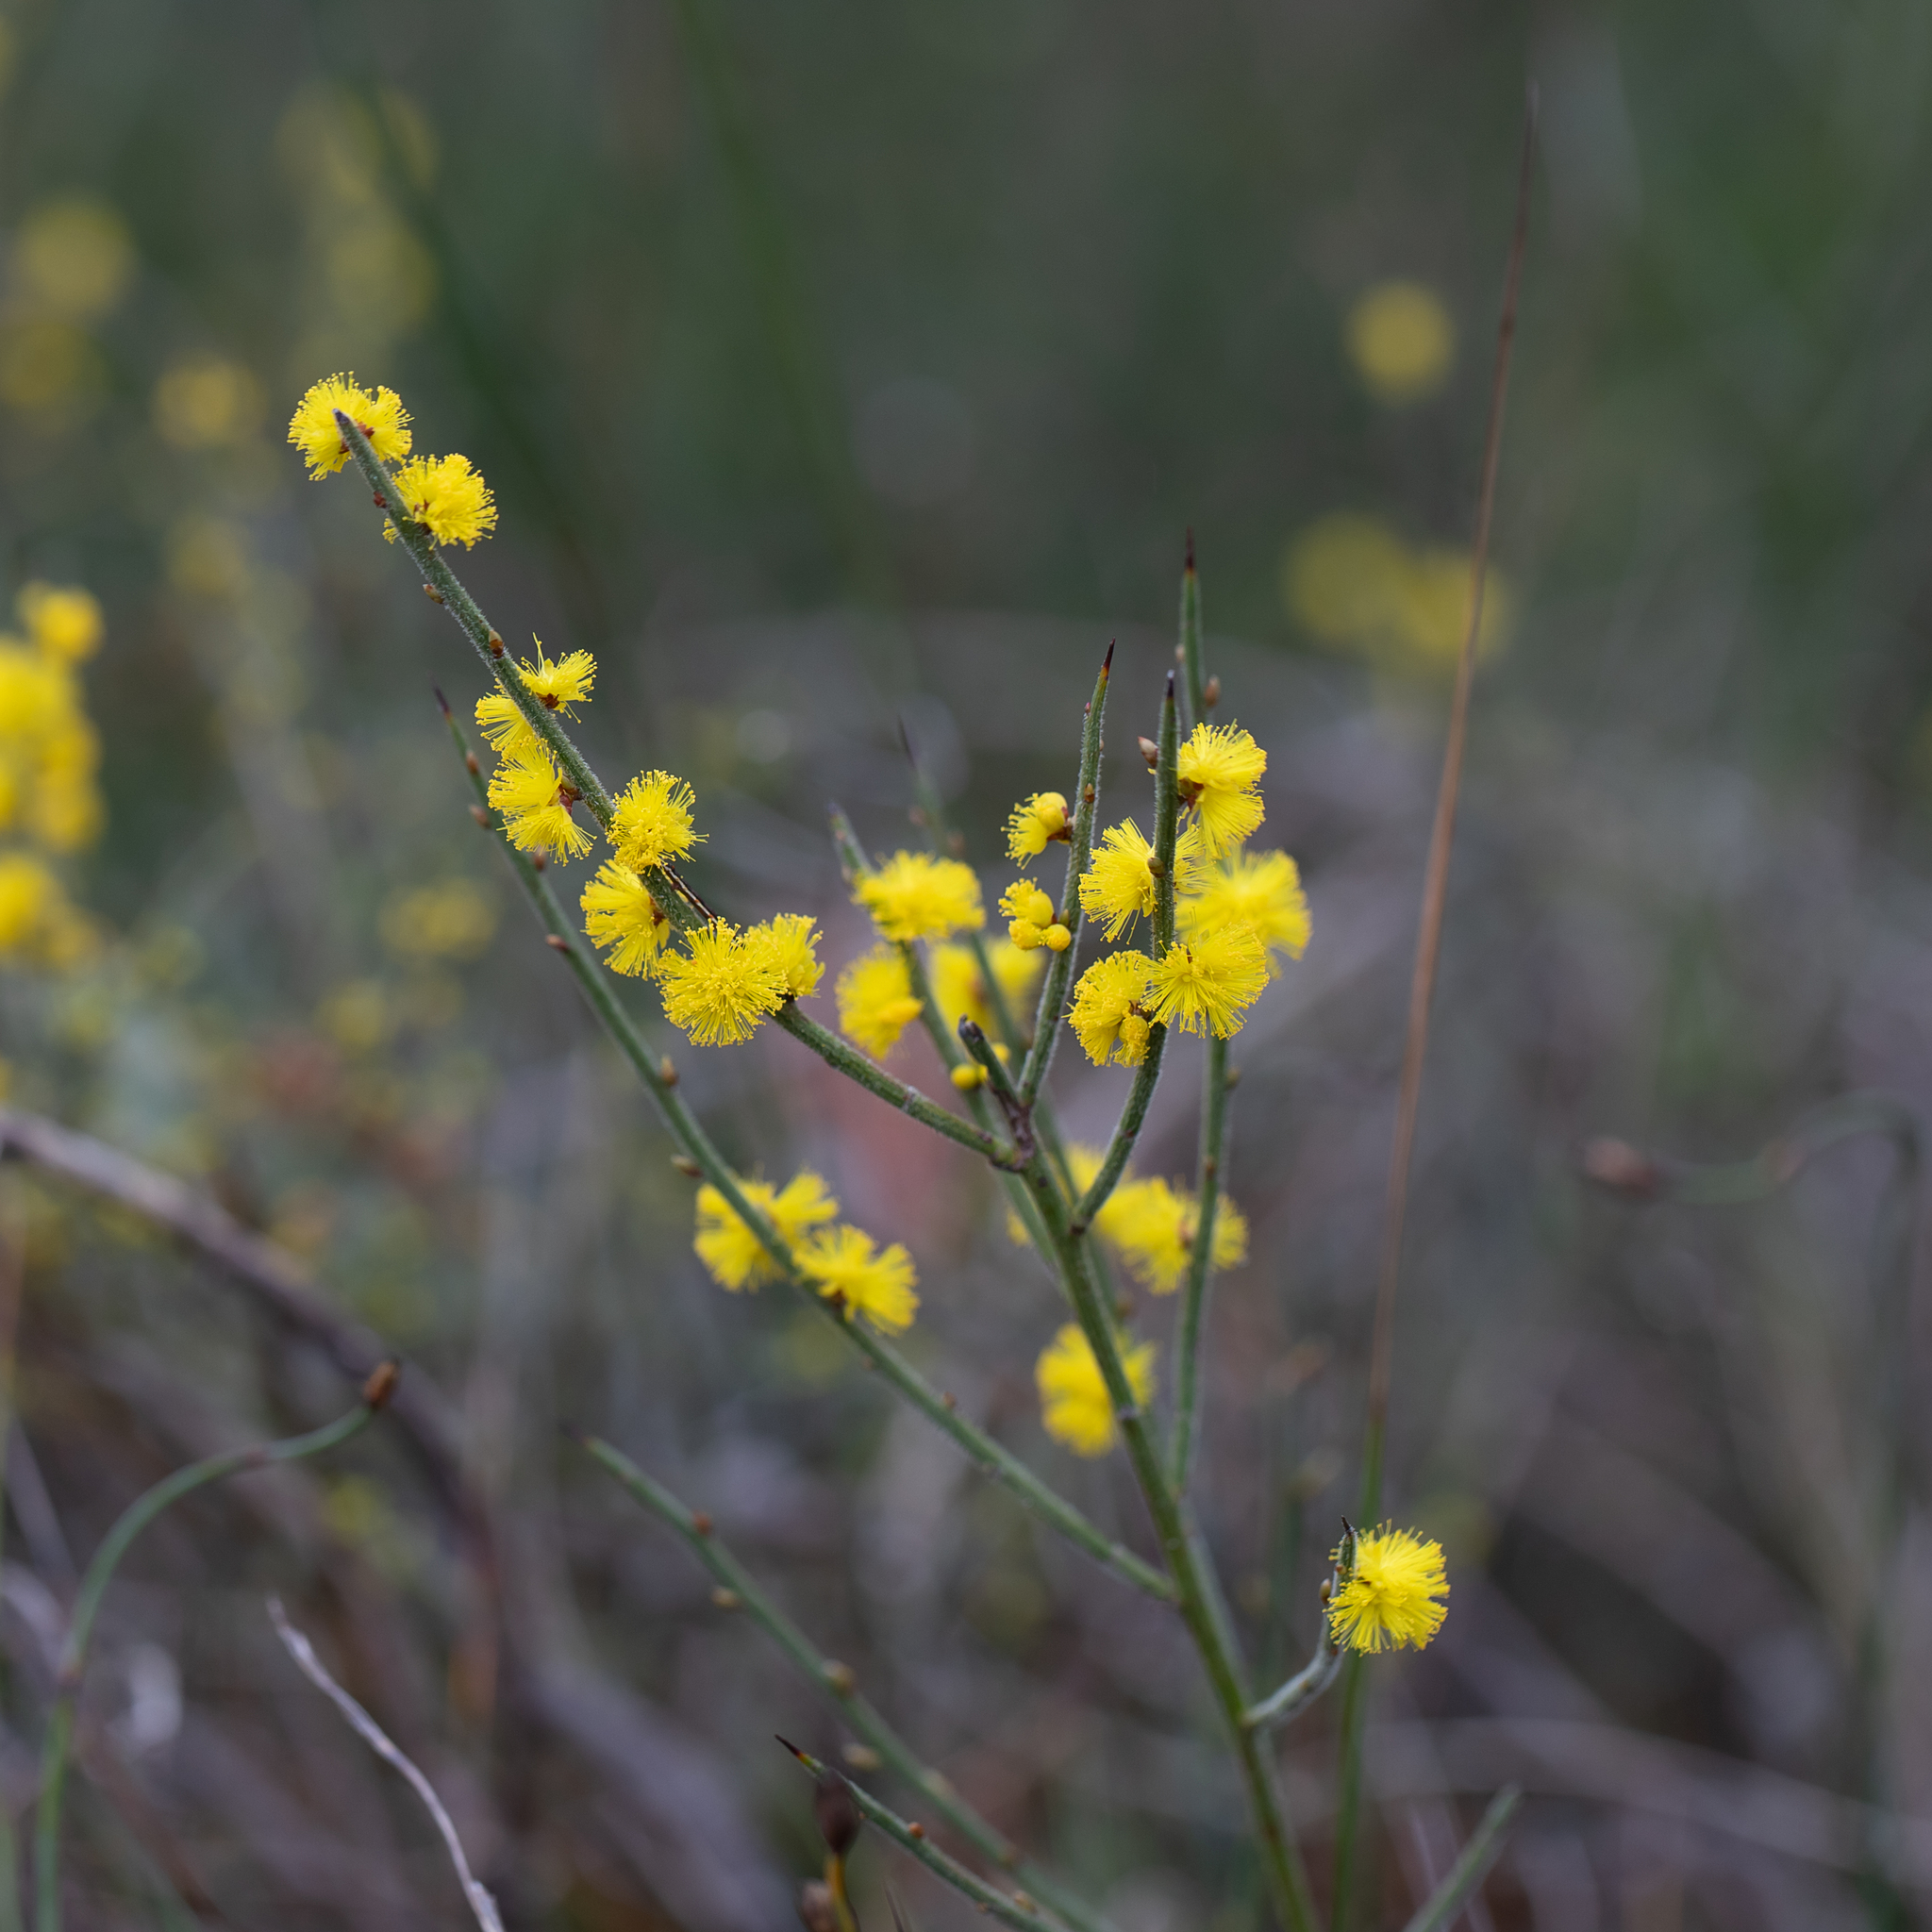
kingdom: Plantae
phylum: Tracheophyta
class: Magnoliopsida
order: Fabales
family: Fabaceae
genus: Acacia
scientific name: Acacia spinescens
